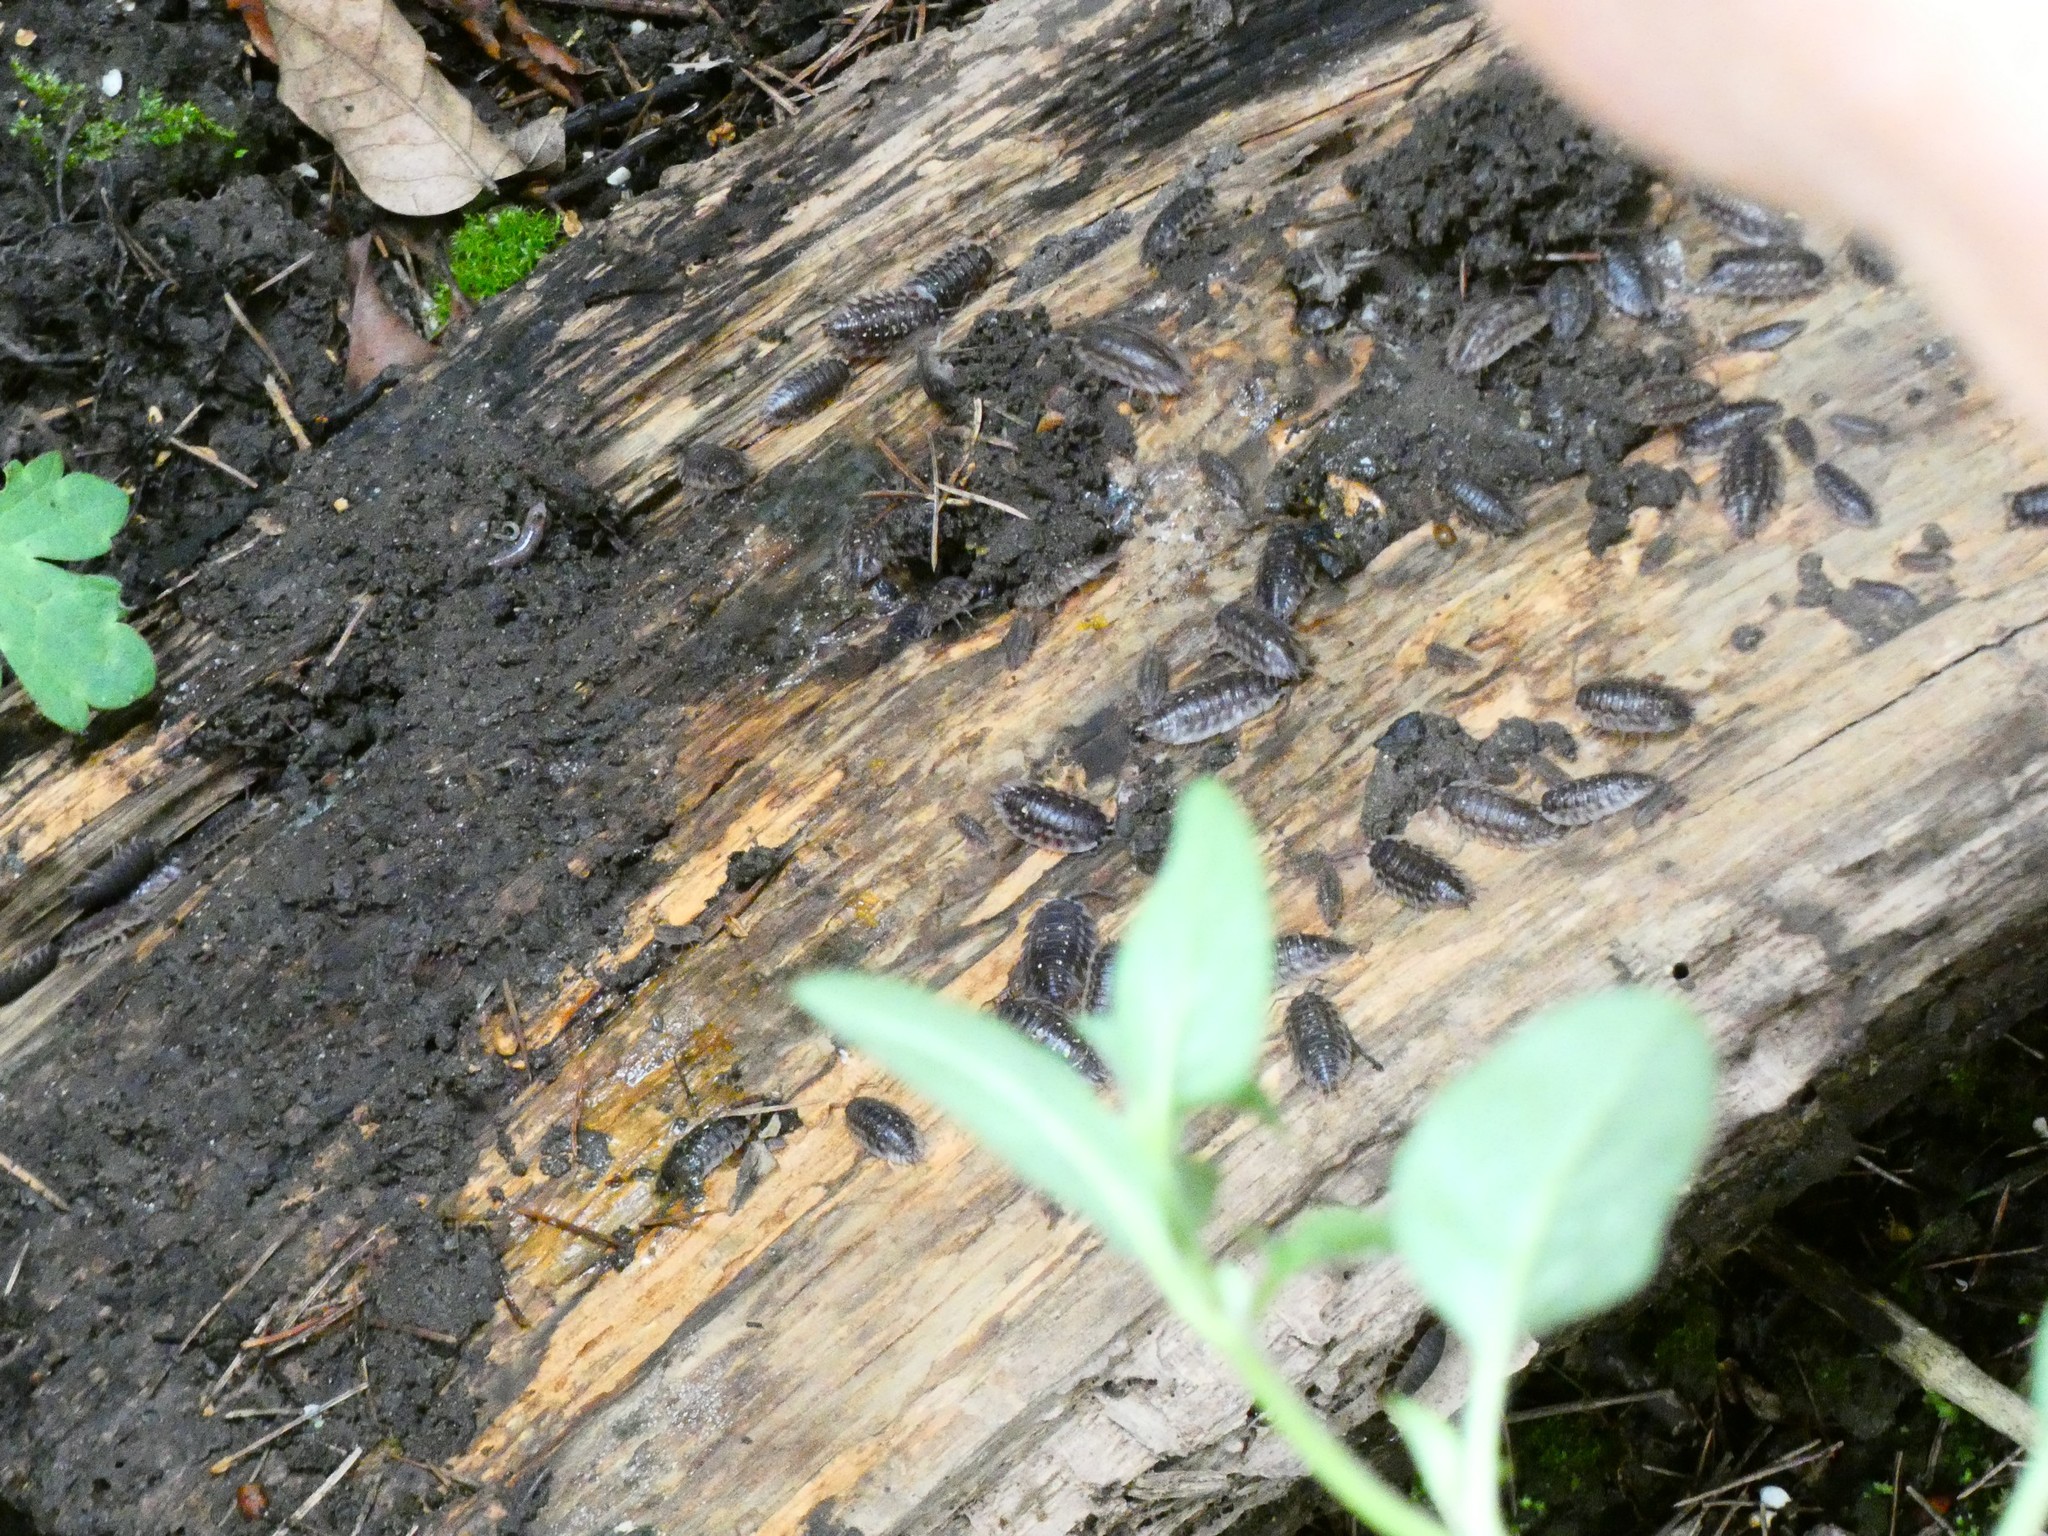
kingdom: Animalia
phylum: Arthropoda
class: Malacostraca
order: Isopoda
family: Oniscidae
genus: Oniscus
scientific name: Oniscus asellus
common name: Common shiny woodlouse
